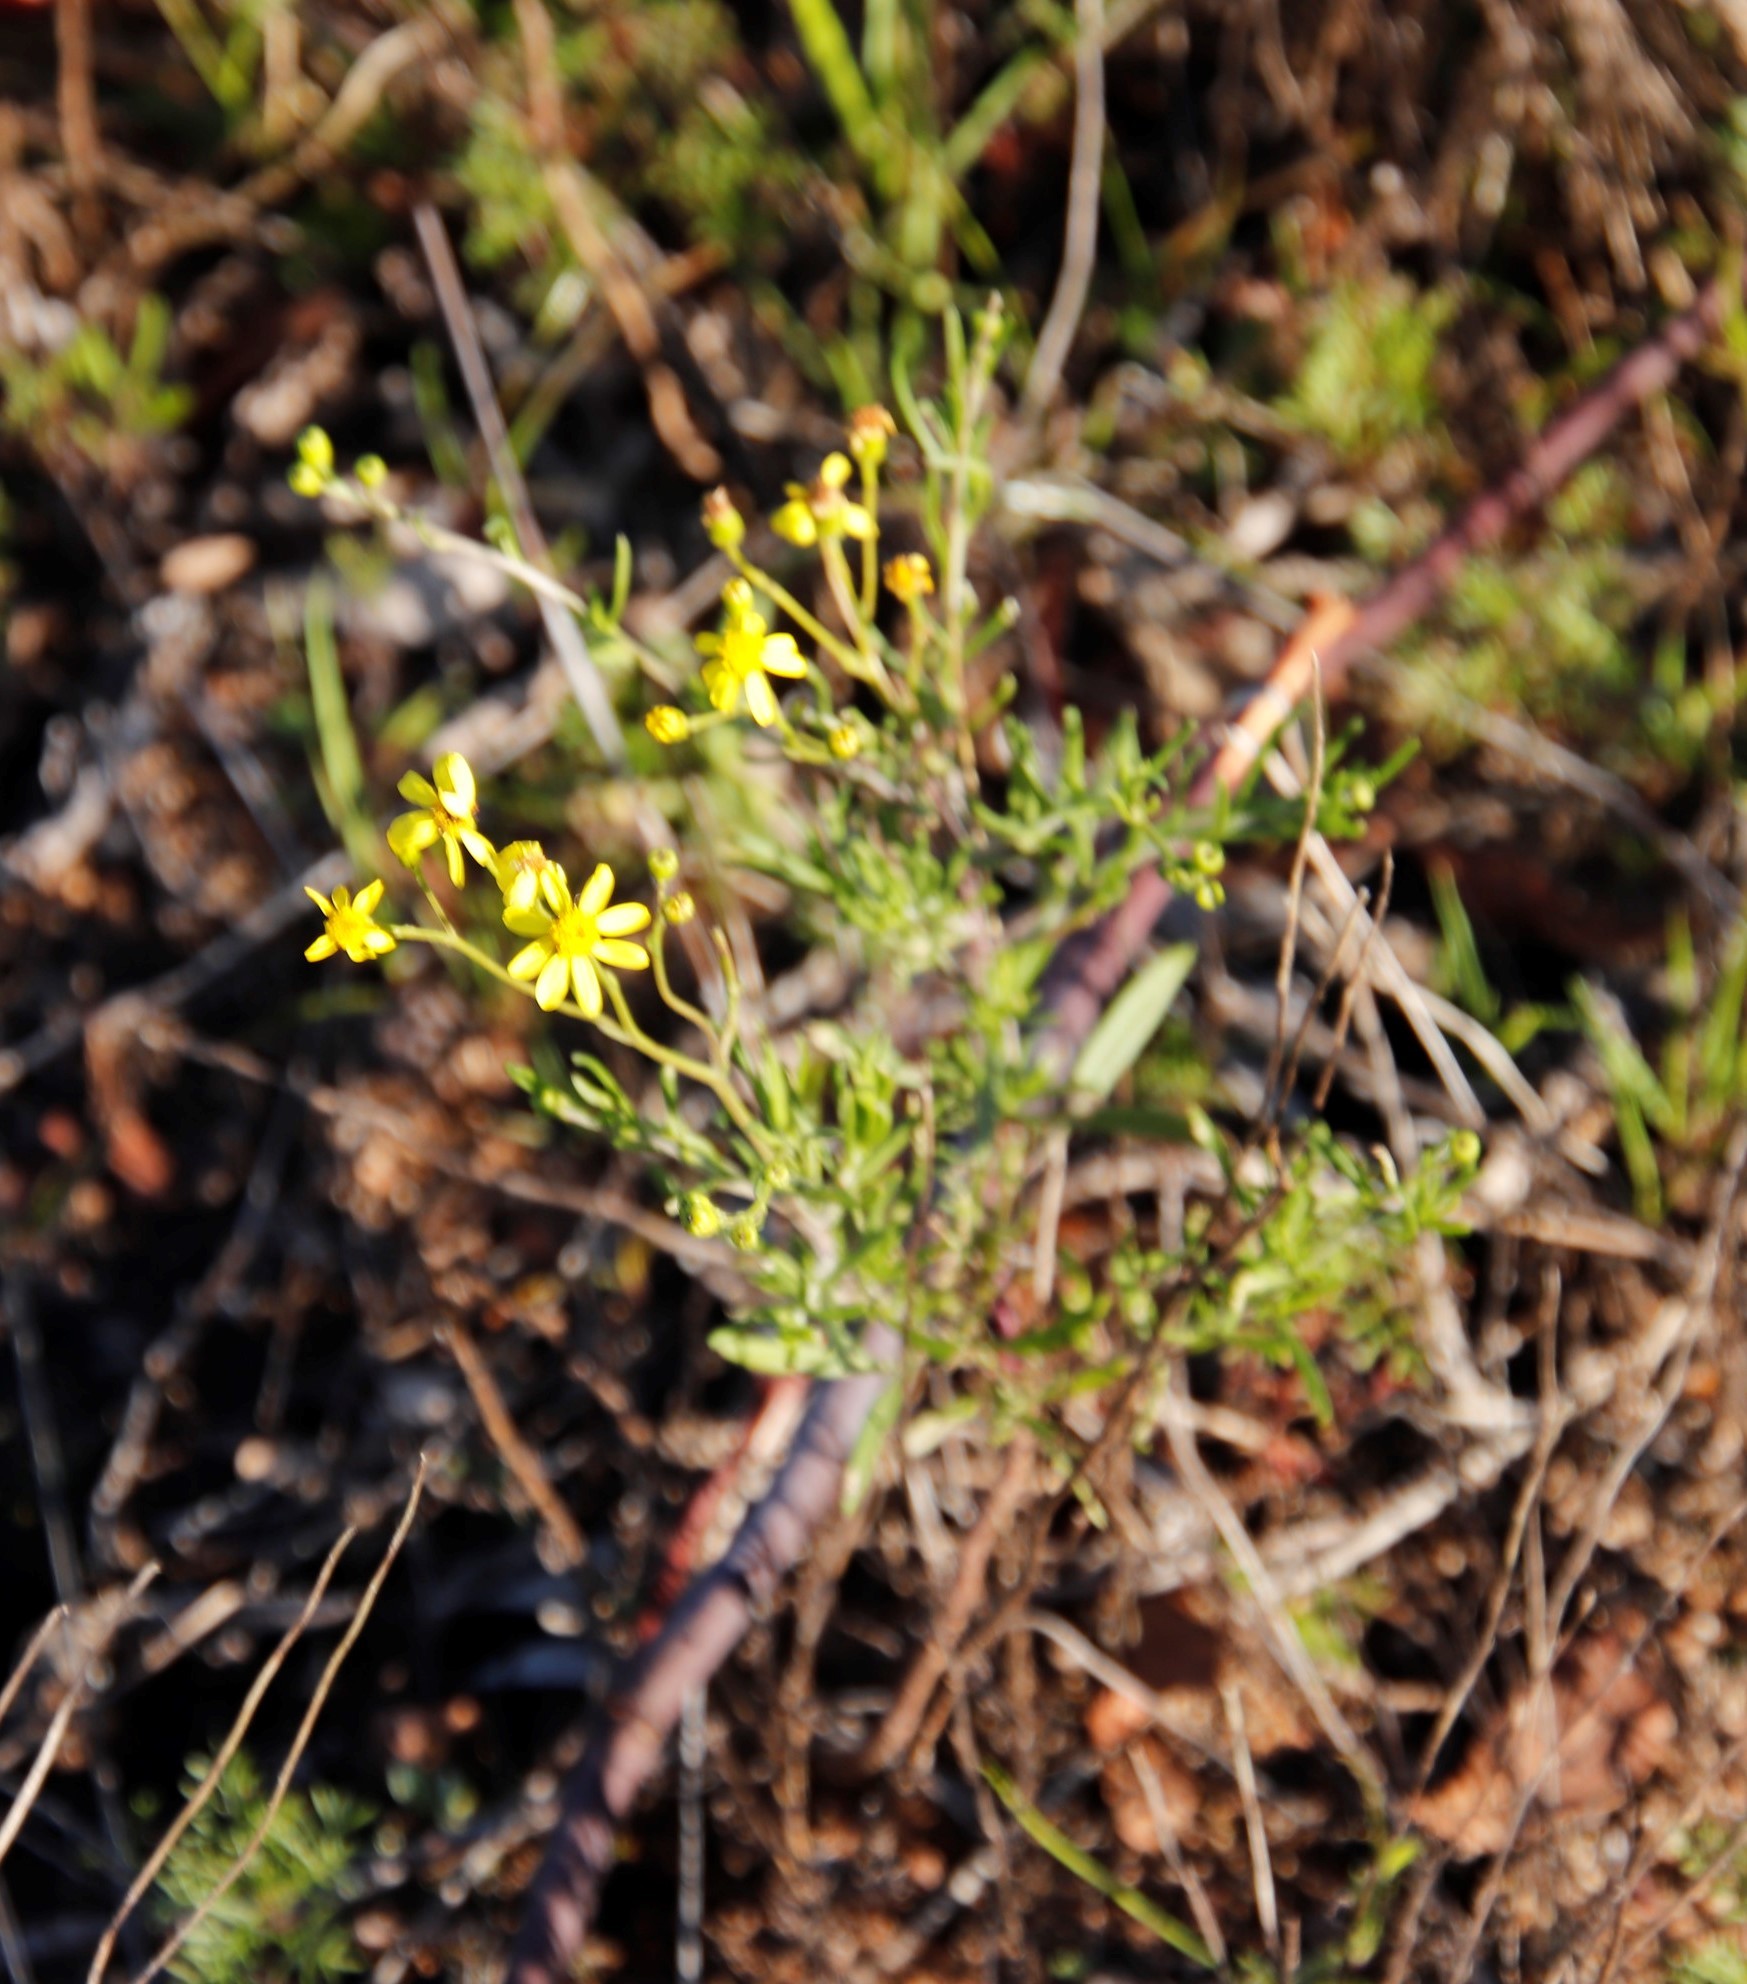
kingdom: Plantae
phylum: Tracheophyta
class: Magnoliopsida
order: Asterales
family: Asteraceae
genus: Senecio
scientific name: Senecio burchellii
